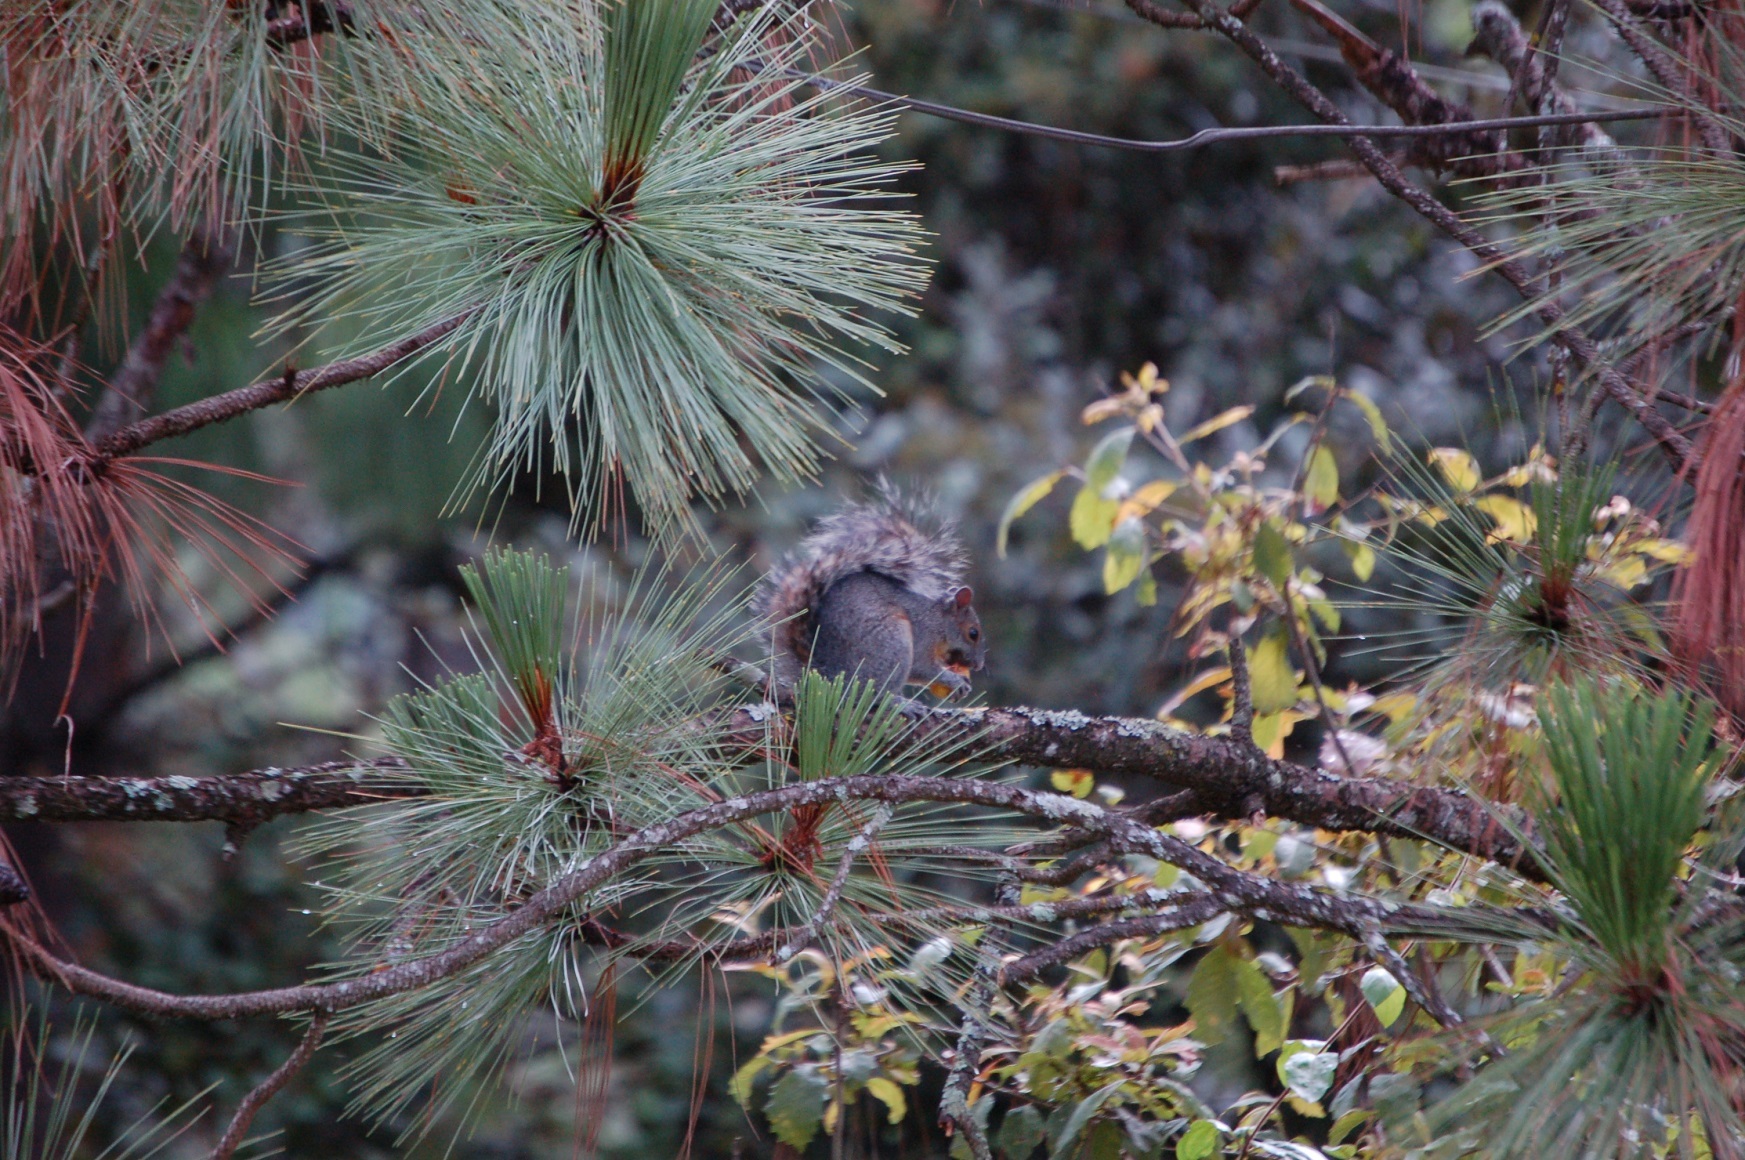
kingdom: Animalia
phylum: Chordata
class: Mammalia
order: Rodentia
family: Sciuridae
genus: Sciurus
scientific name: Sciurus aureogaster
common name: Red-bellied squirrel
